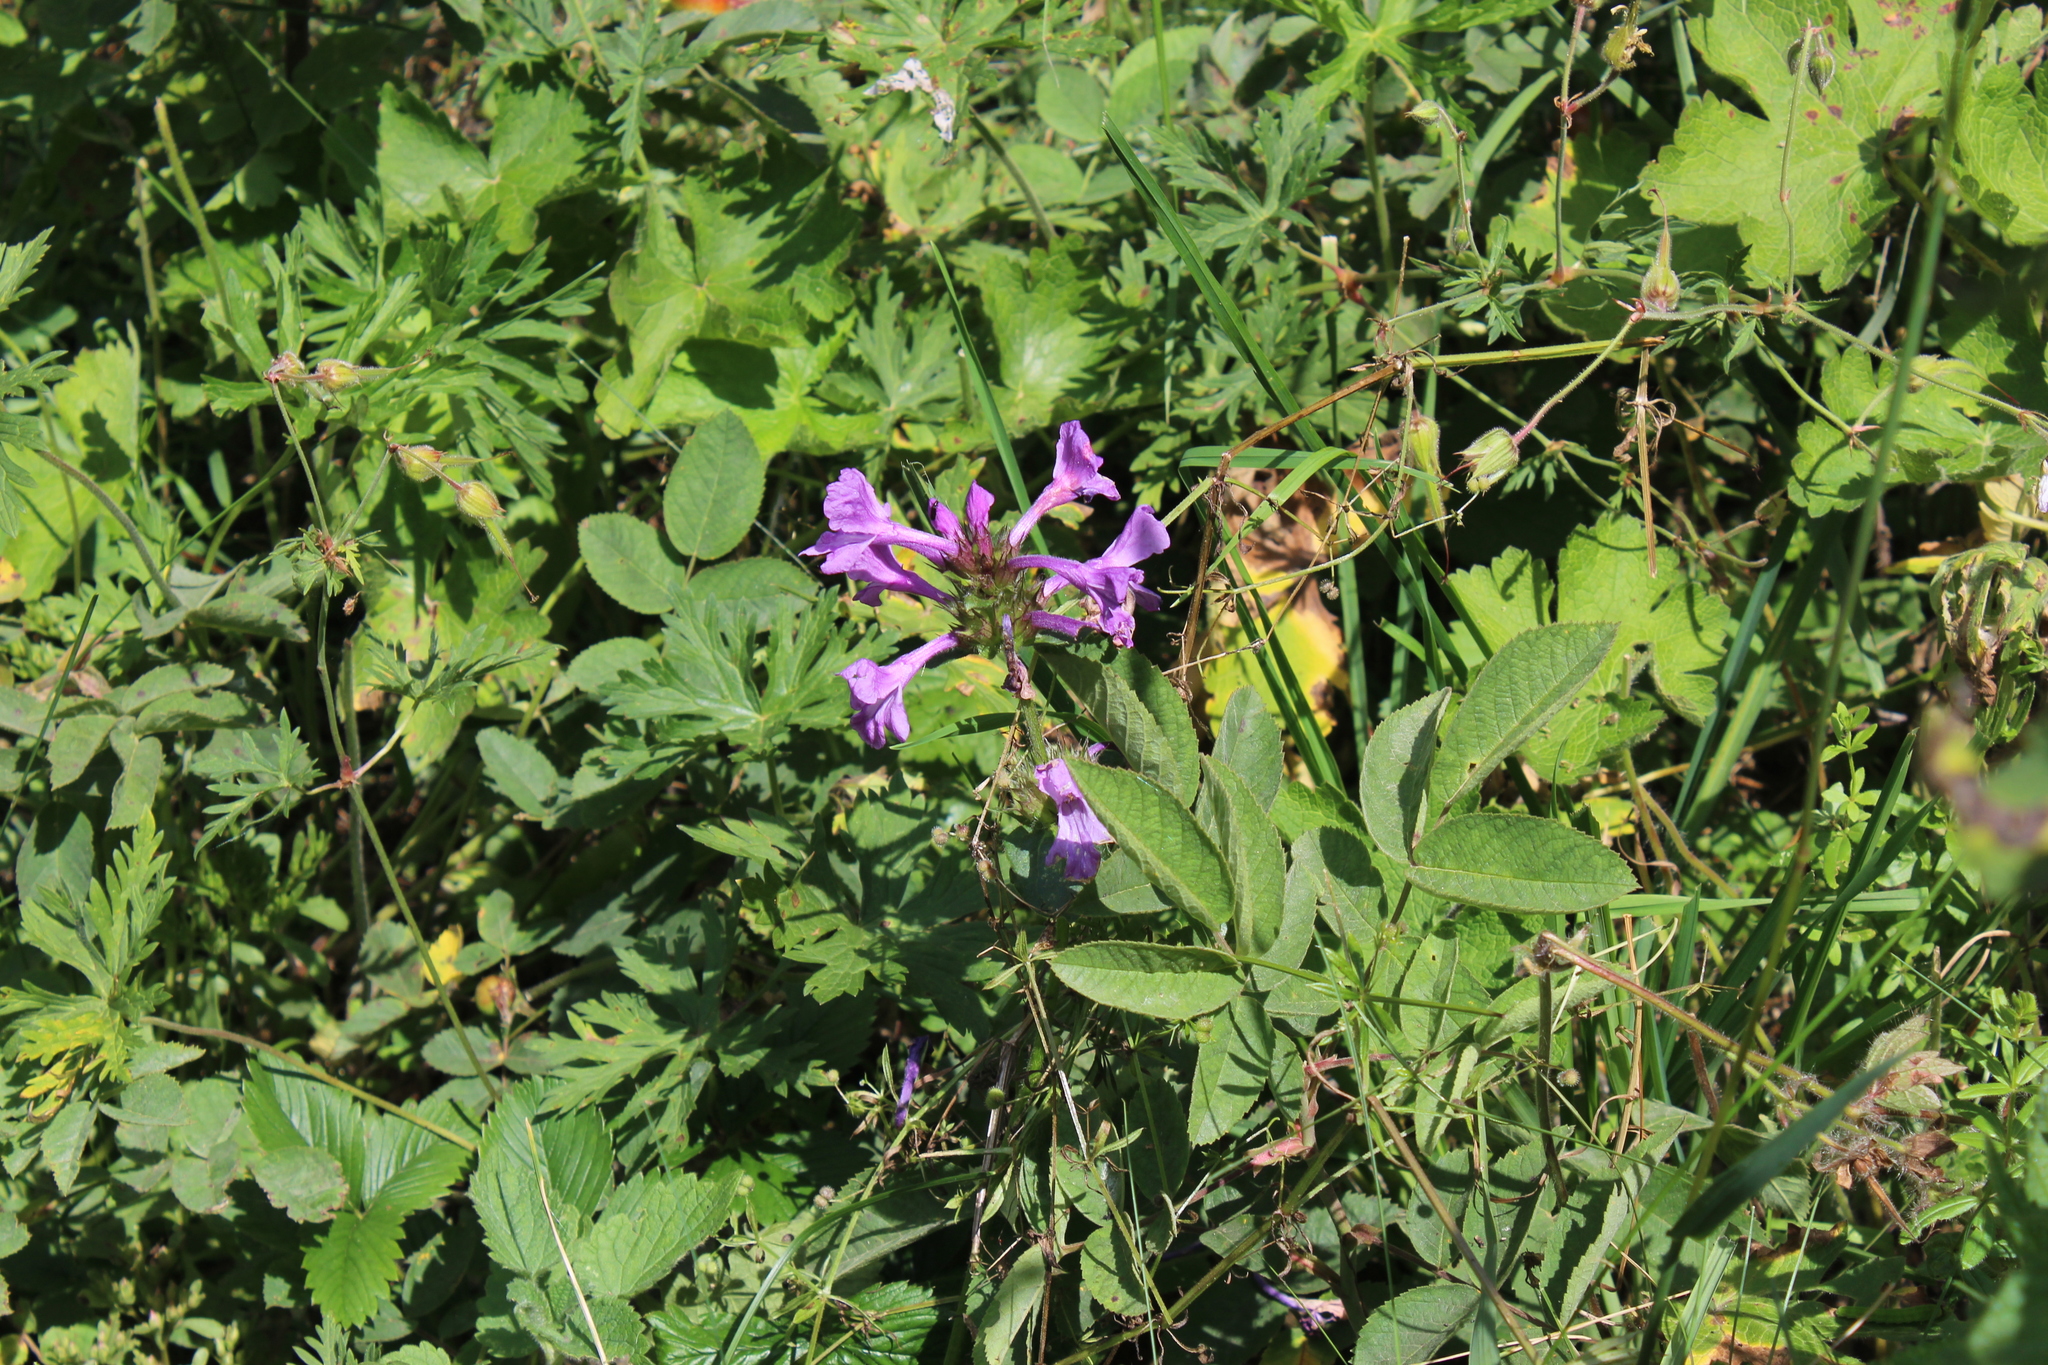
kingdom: Plantae
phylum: Tracheophyta
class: Magnoliopsida
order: Lamiales
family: Lamiaceae
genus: Betonica
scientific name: Betonica macrantha
